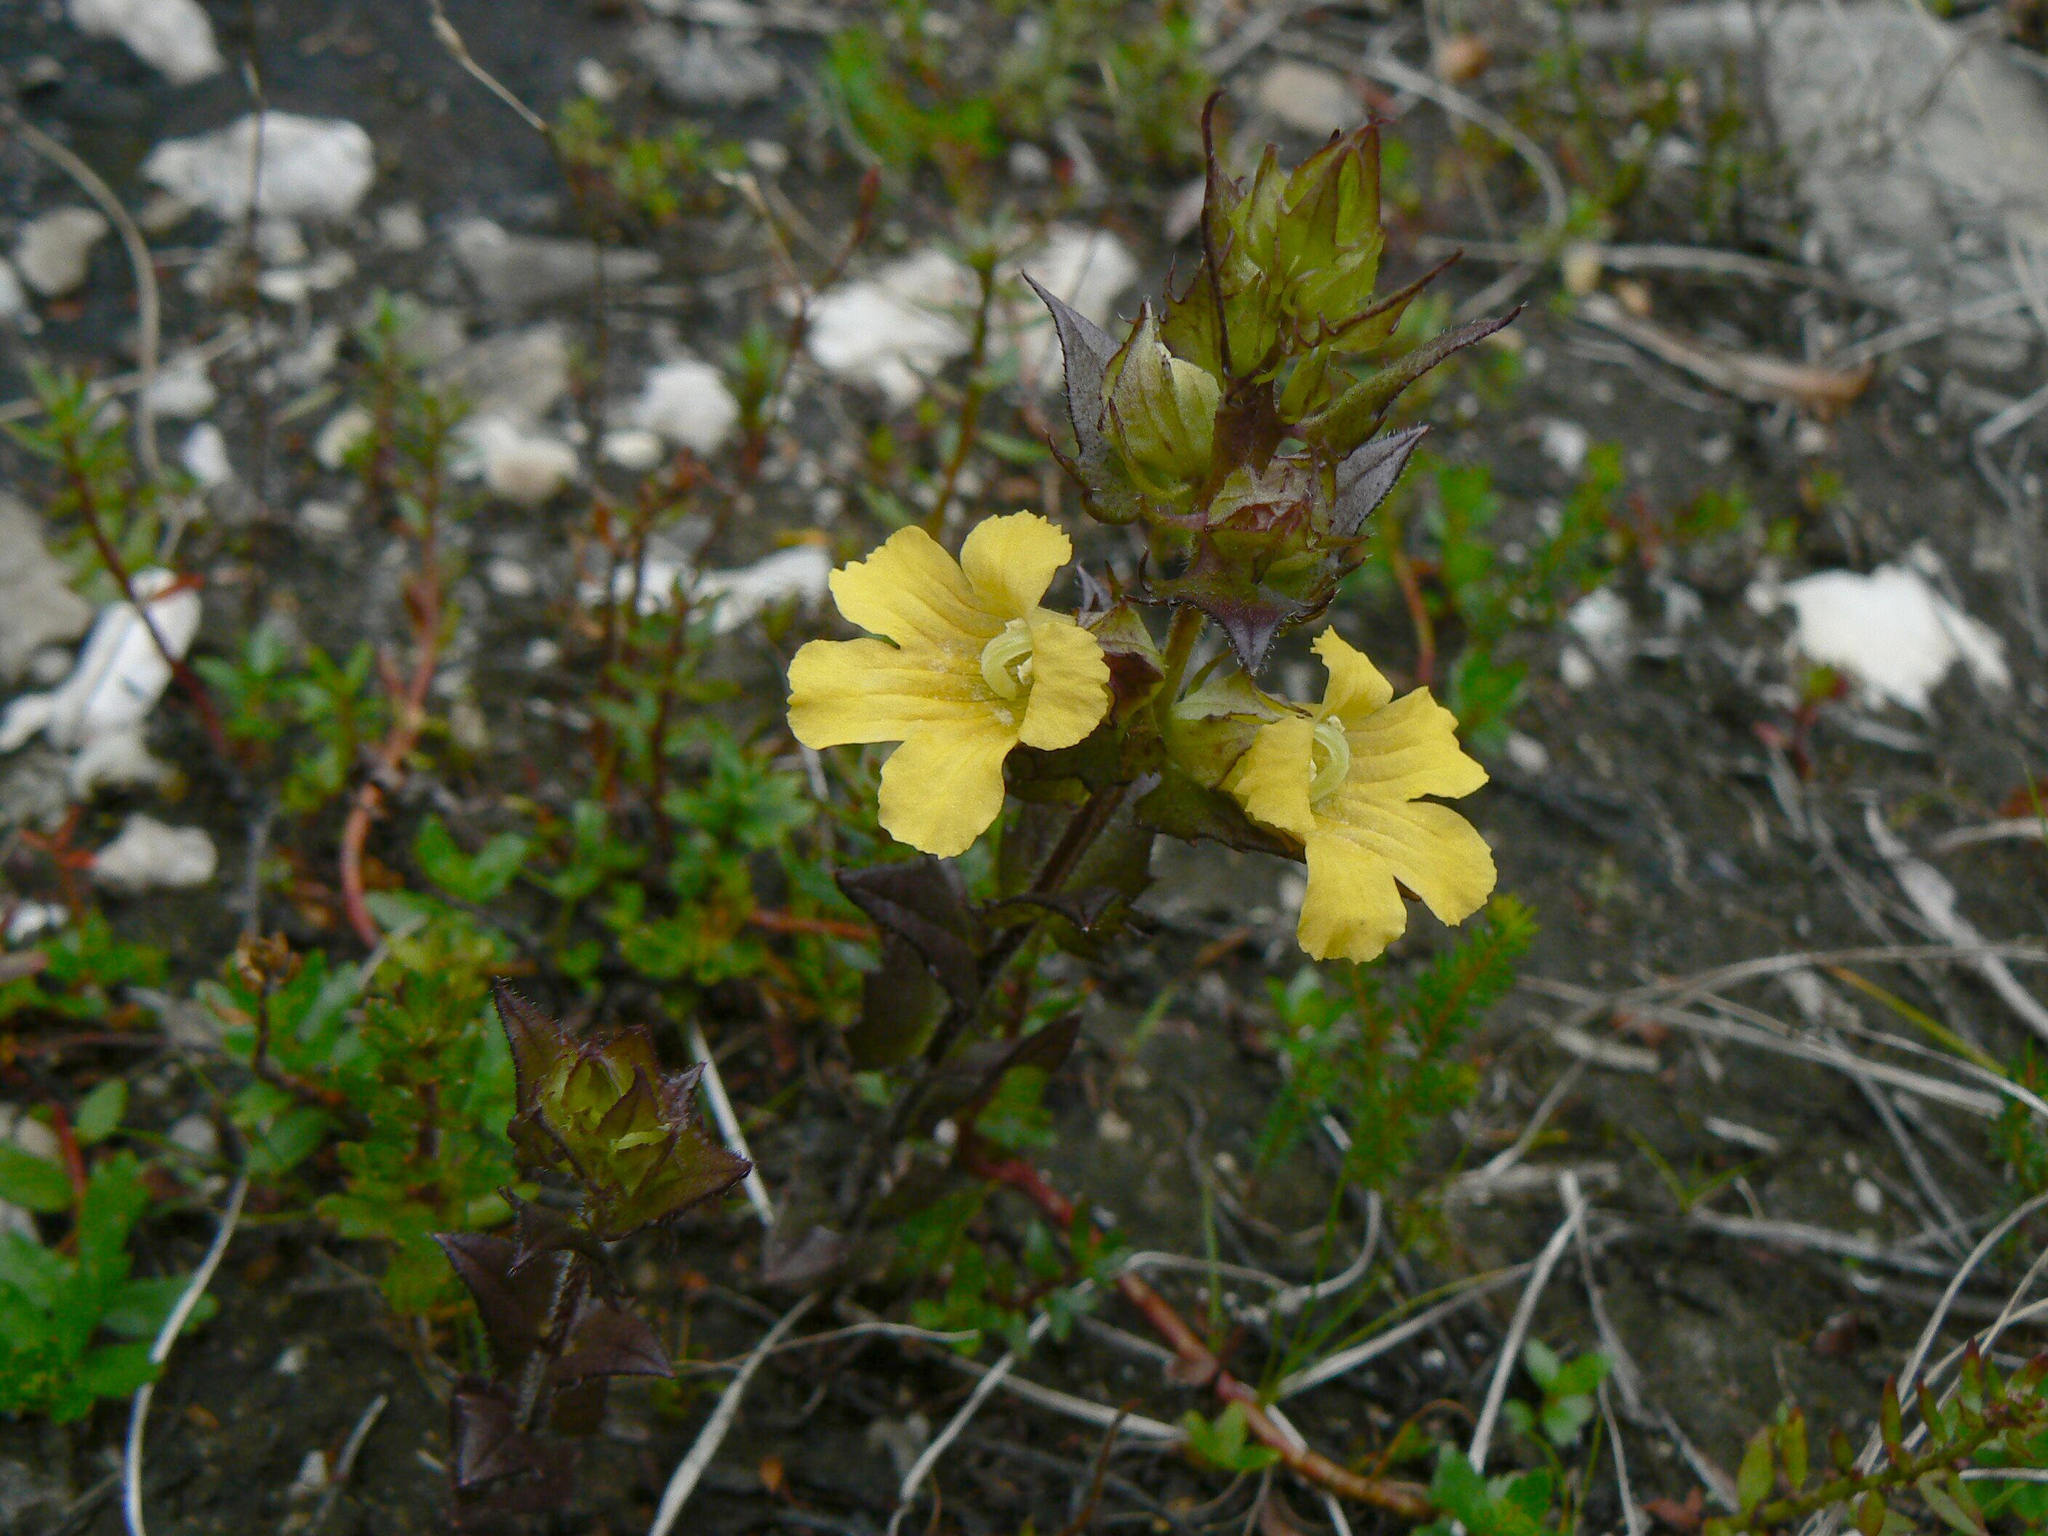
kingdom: Plantae
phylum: Tracheophyta
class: Magnoliopsida
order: Lamiales
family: Orobanchaceae
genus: Alectra
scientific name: Alectra sessiliflora
